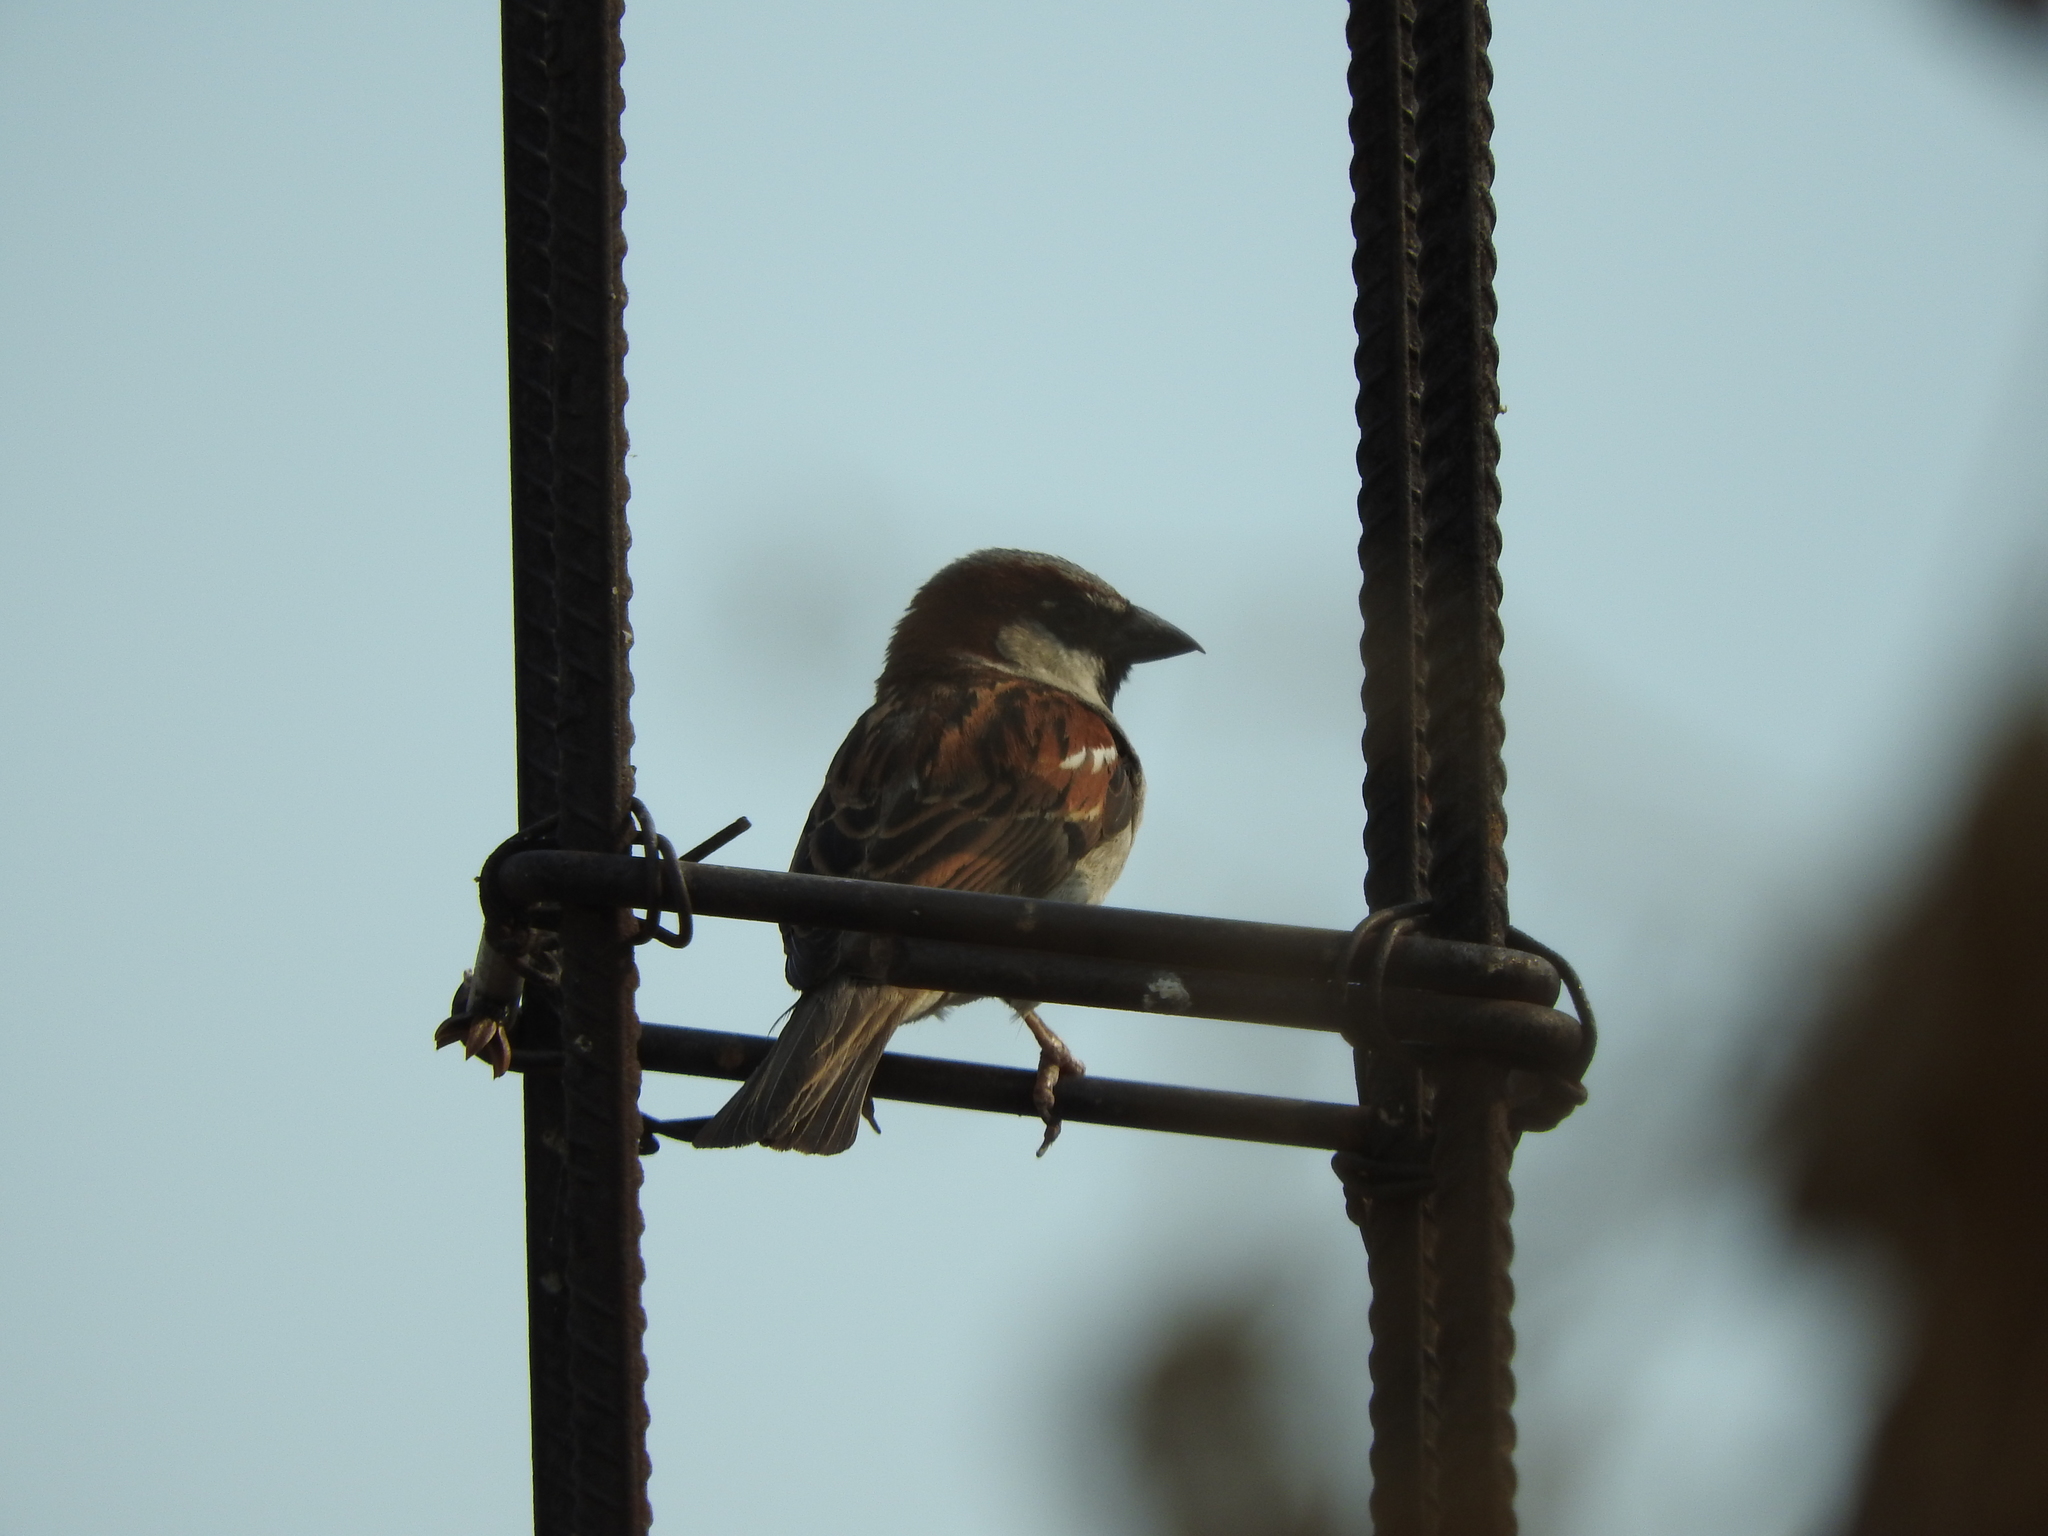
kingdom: Animalia
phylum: Chordata
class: Aves
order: Passeriformes
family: Passeridae
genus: Passer
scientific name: Passer domesticus
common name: House sparrow
